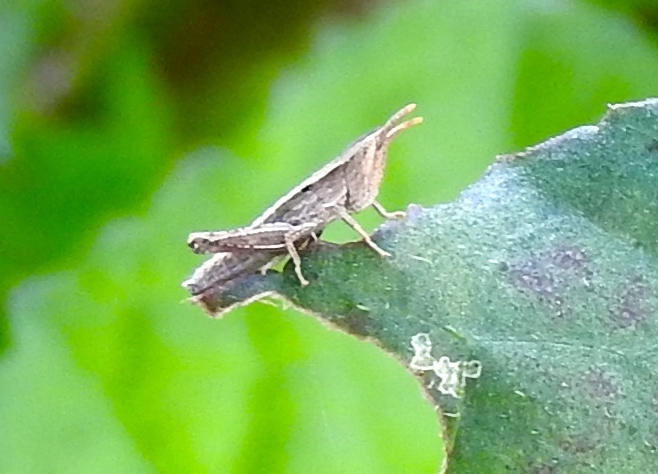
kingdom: Animalia
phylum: Arthropoda
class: Insecta
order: Orthoptera
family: Acrididae
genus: Dichromorpha
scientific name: Dichromorpha prominula
